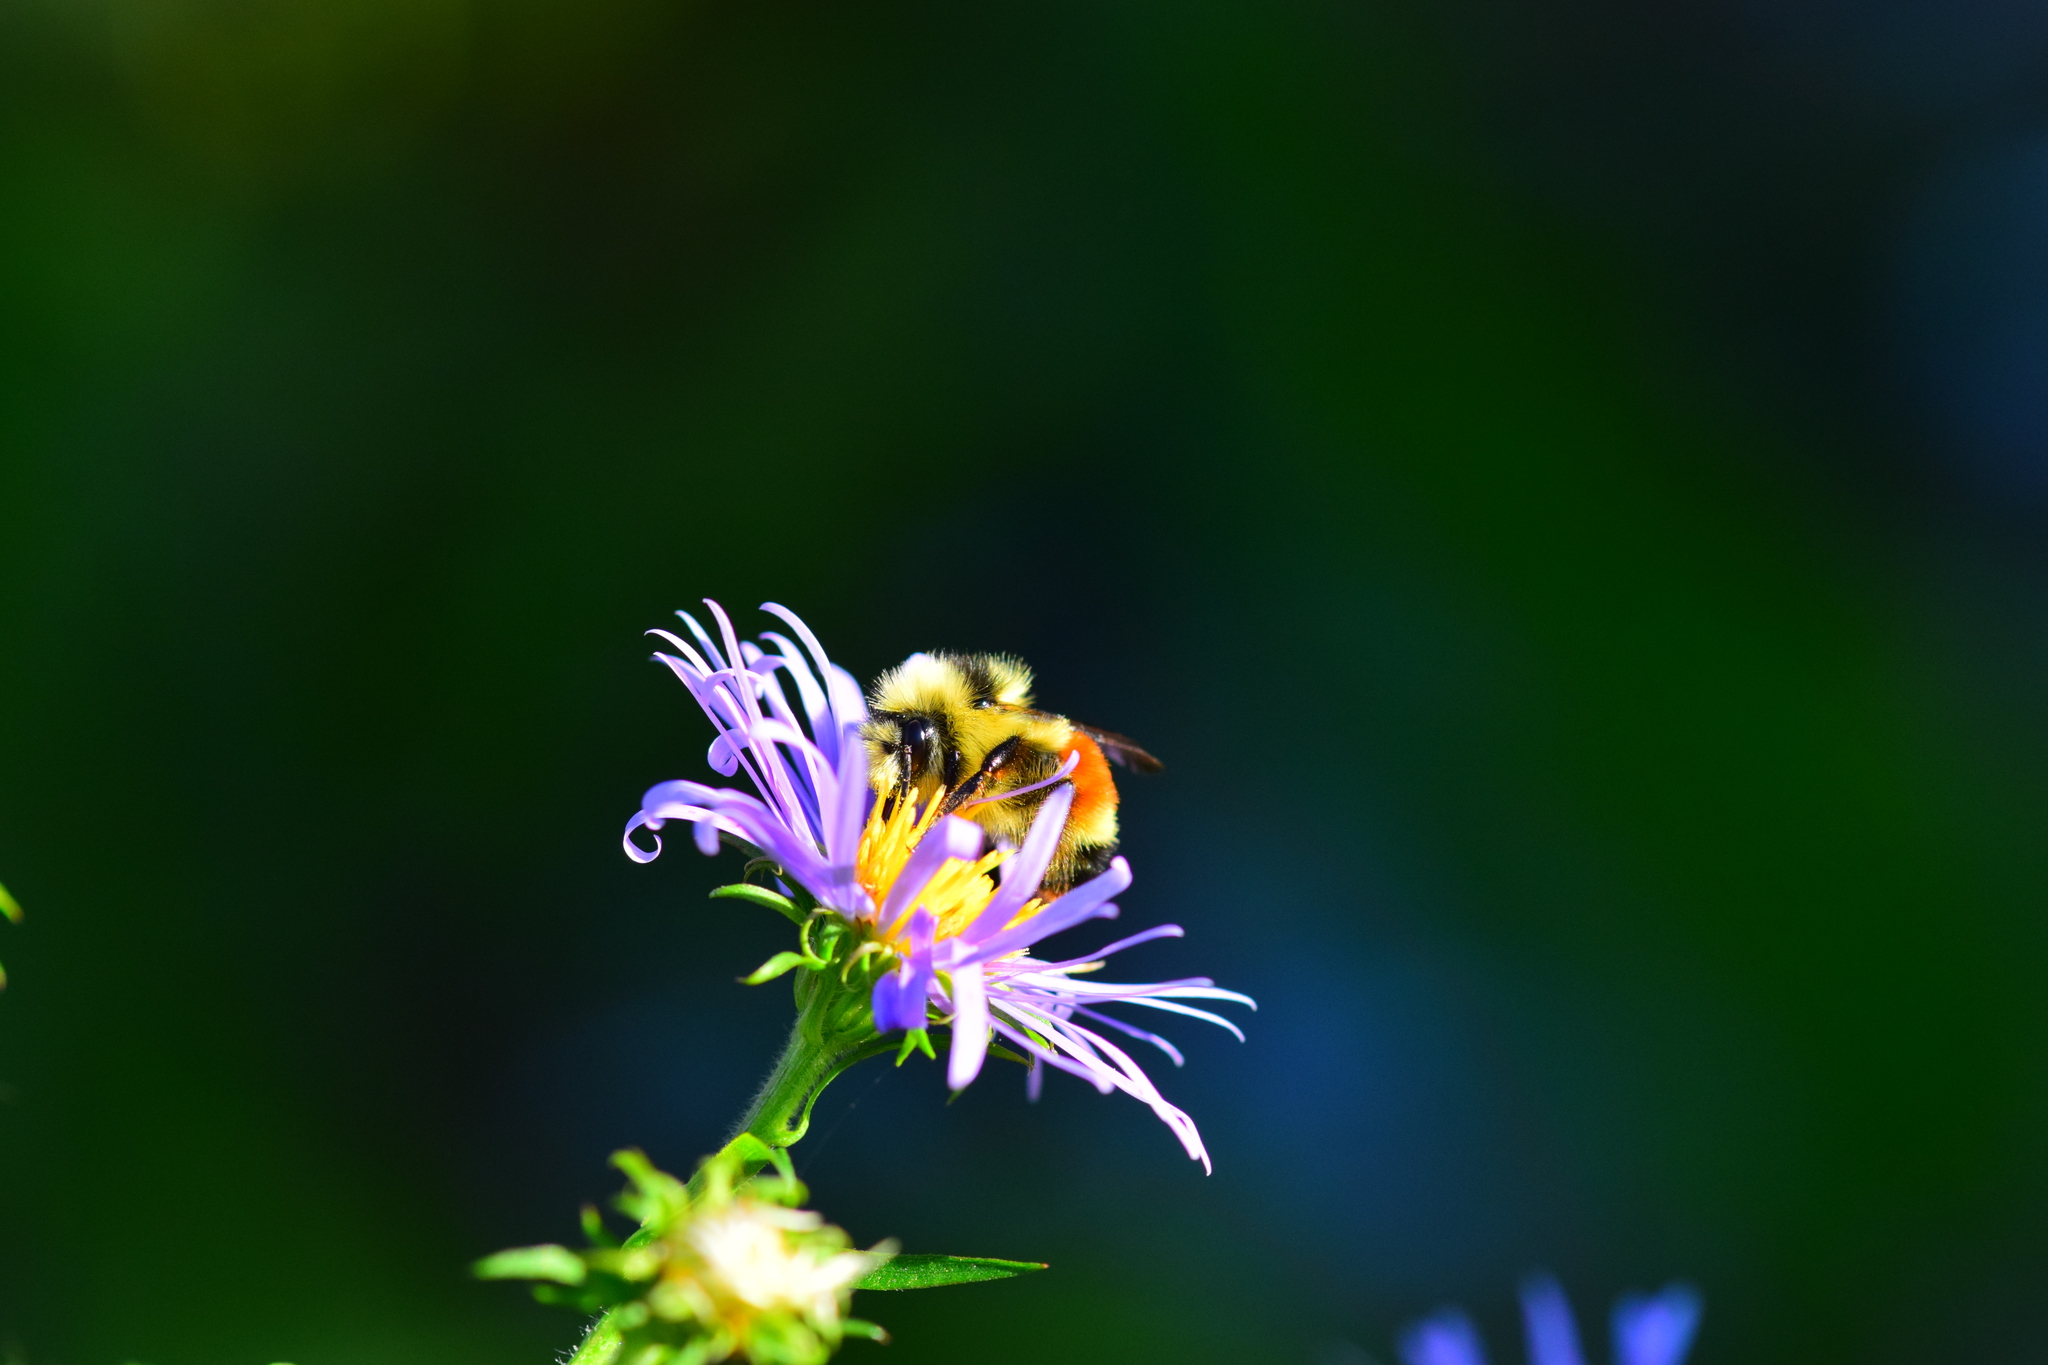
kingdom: Animalia
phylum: Arthropoda
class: Insecta
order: Hymenoptera
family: Apidae
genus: Bombus
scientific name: Bombus ternarius
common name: Tri-colored bumble bee
